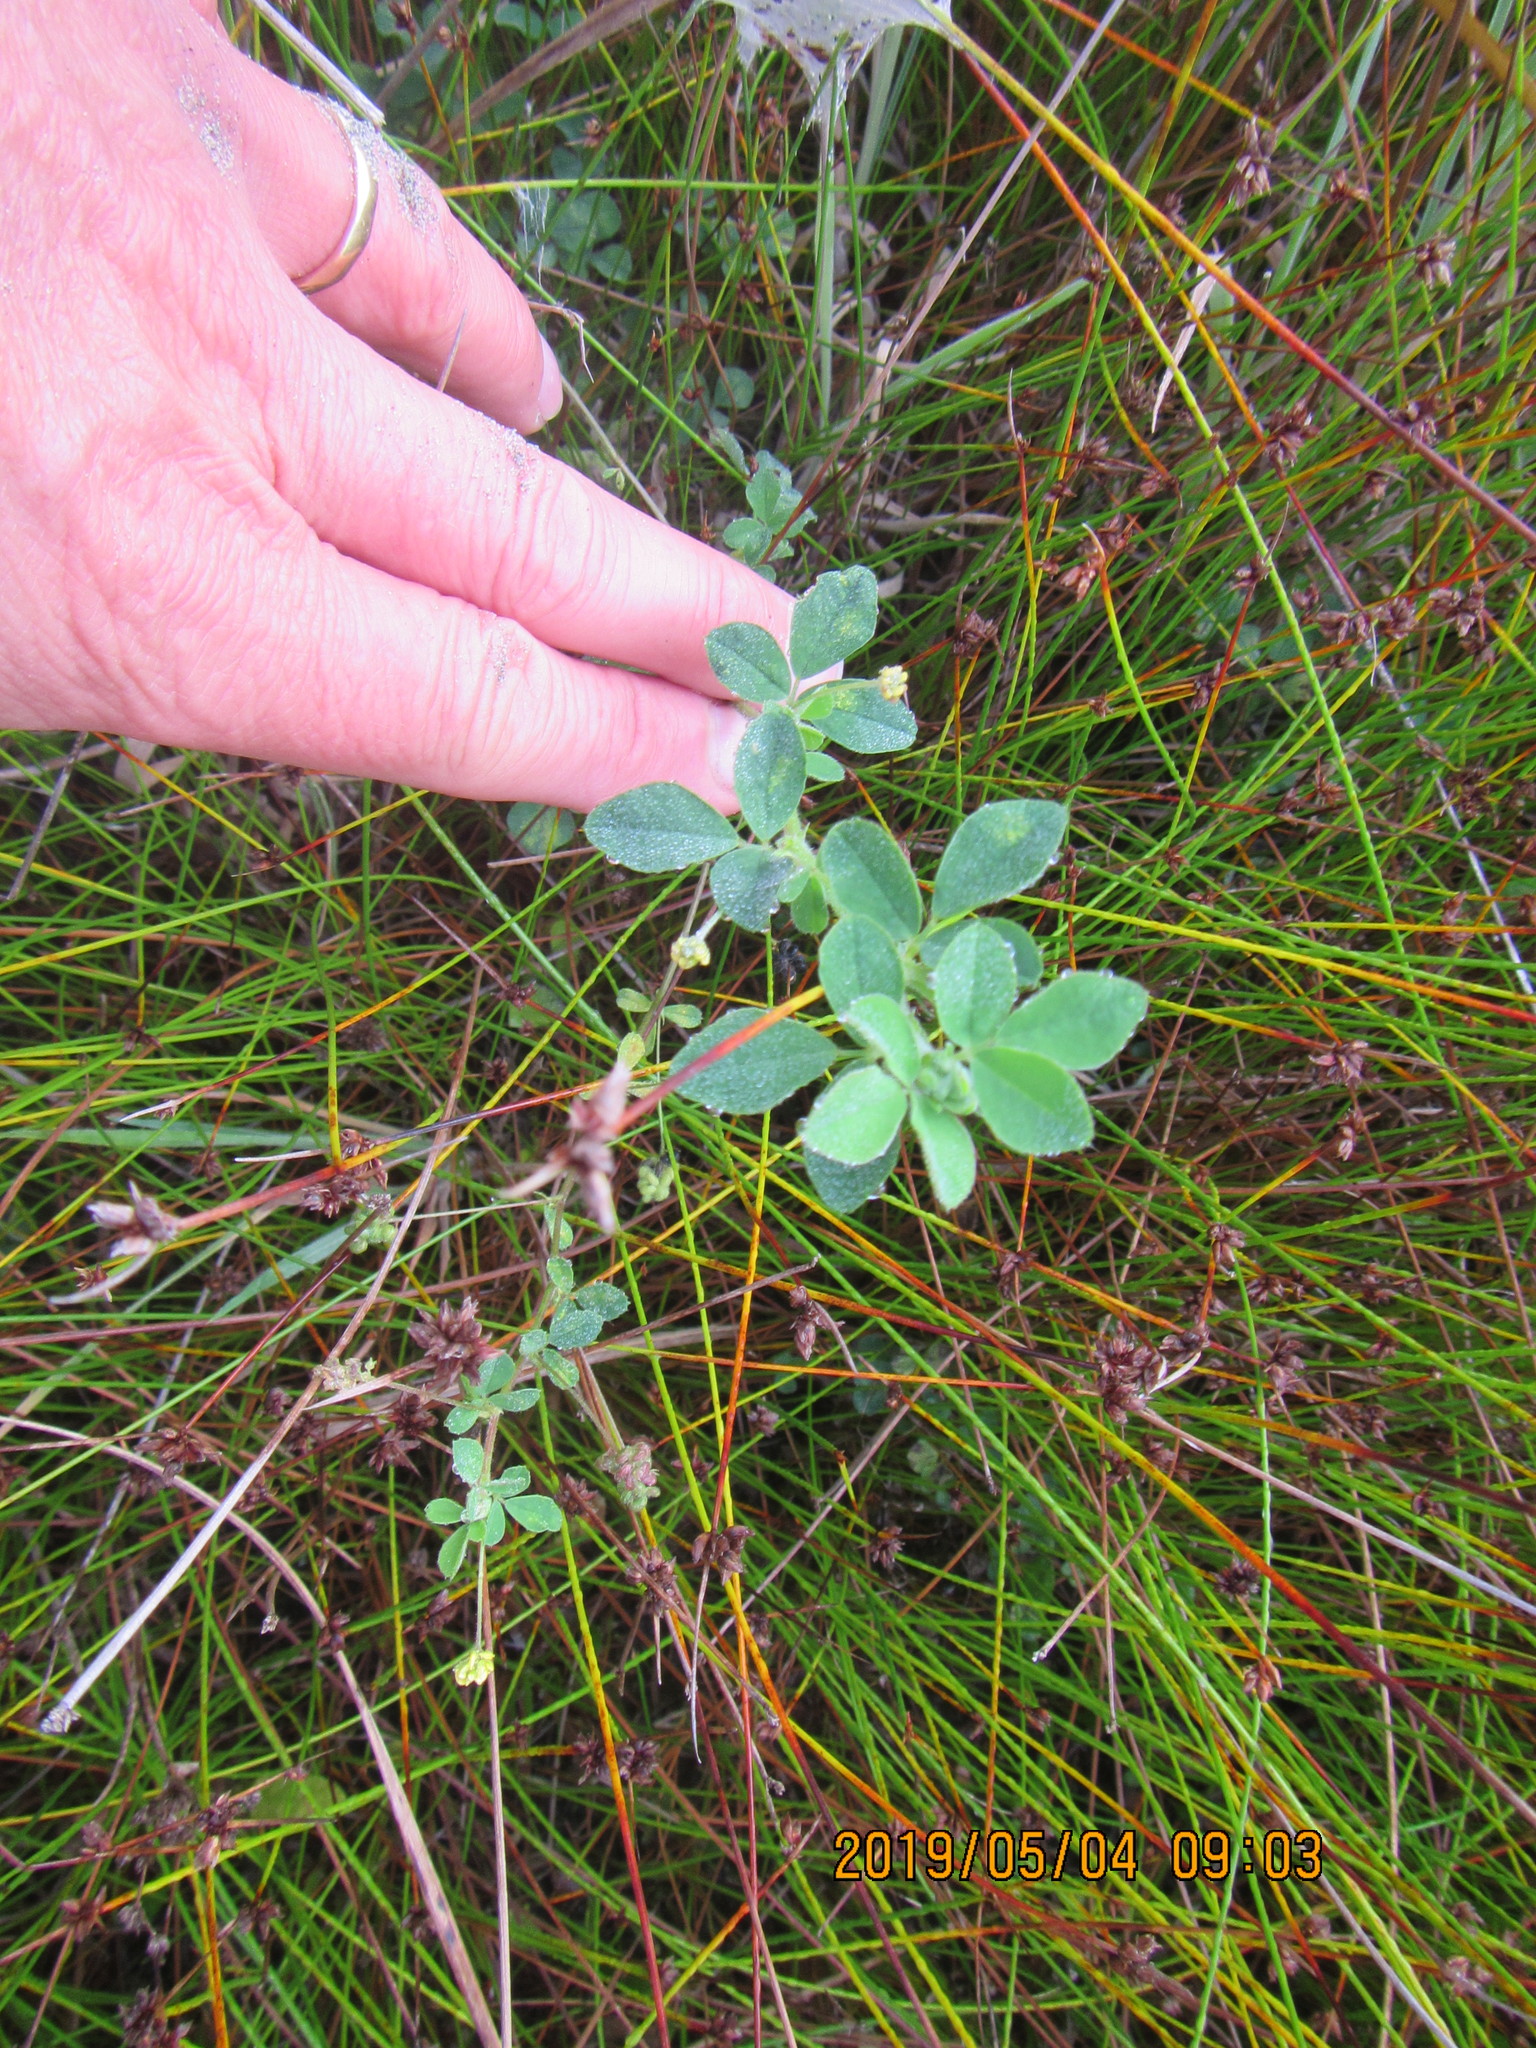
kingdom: Plantae
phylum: Tracheophyta
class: Magnoliopsida
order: Fabales
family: Fabaceae
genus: Melilotus
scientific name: Melilotus indicus
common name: Small melilot
